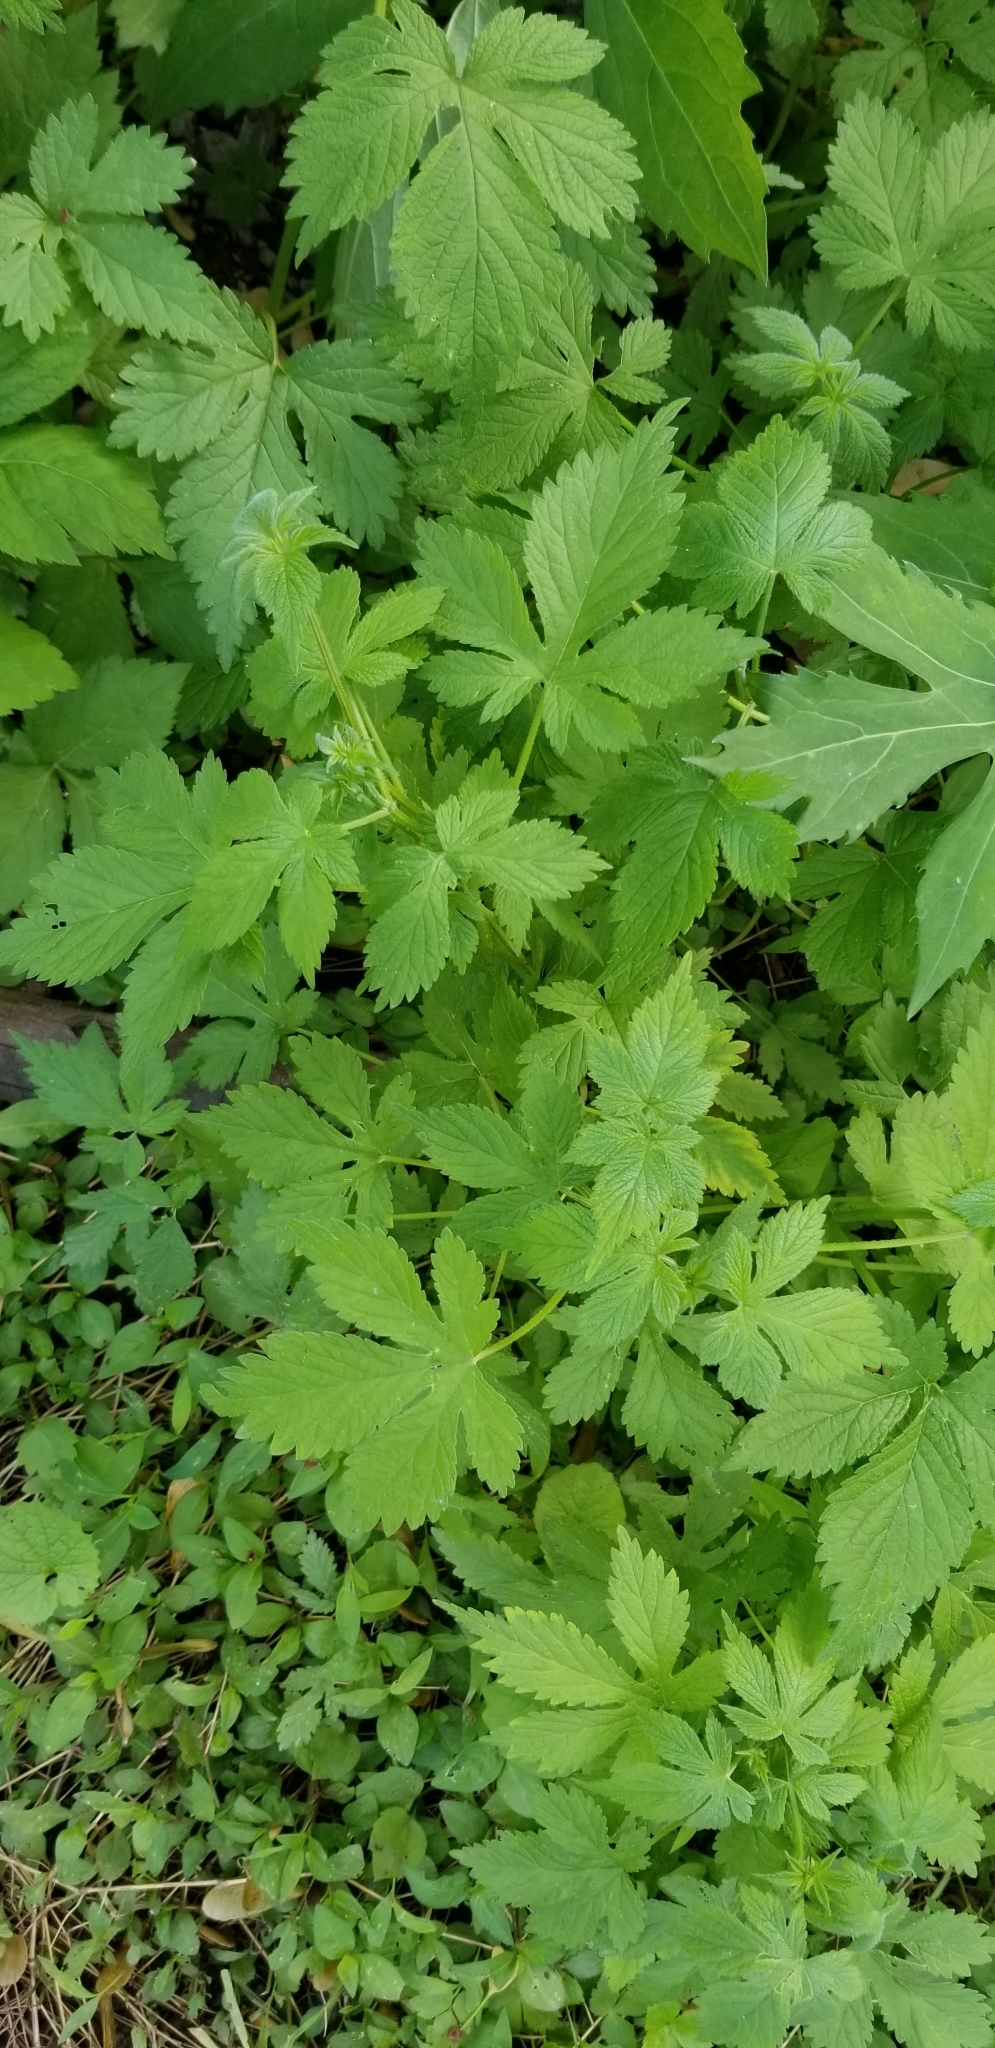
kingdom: Plantae
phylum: Tracheophyta
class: Magnoliopsida
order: Rosales
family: Cannabaceae
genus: Humulus
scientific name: Humulus scandens
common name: Japanese hop
